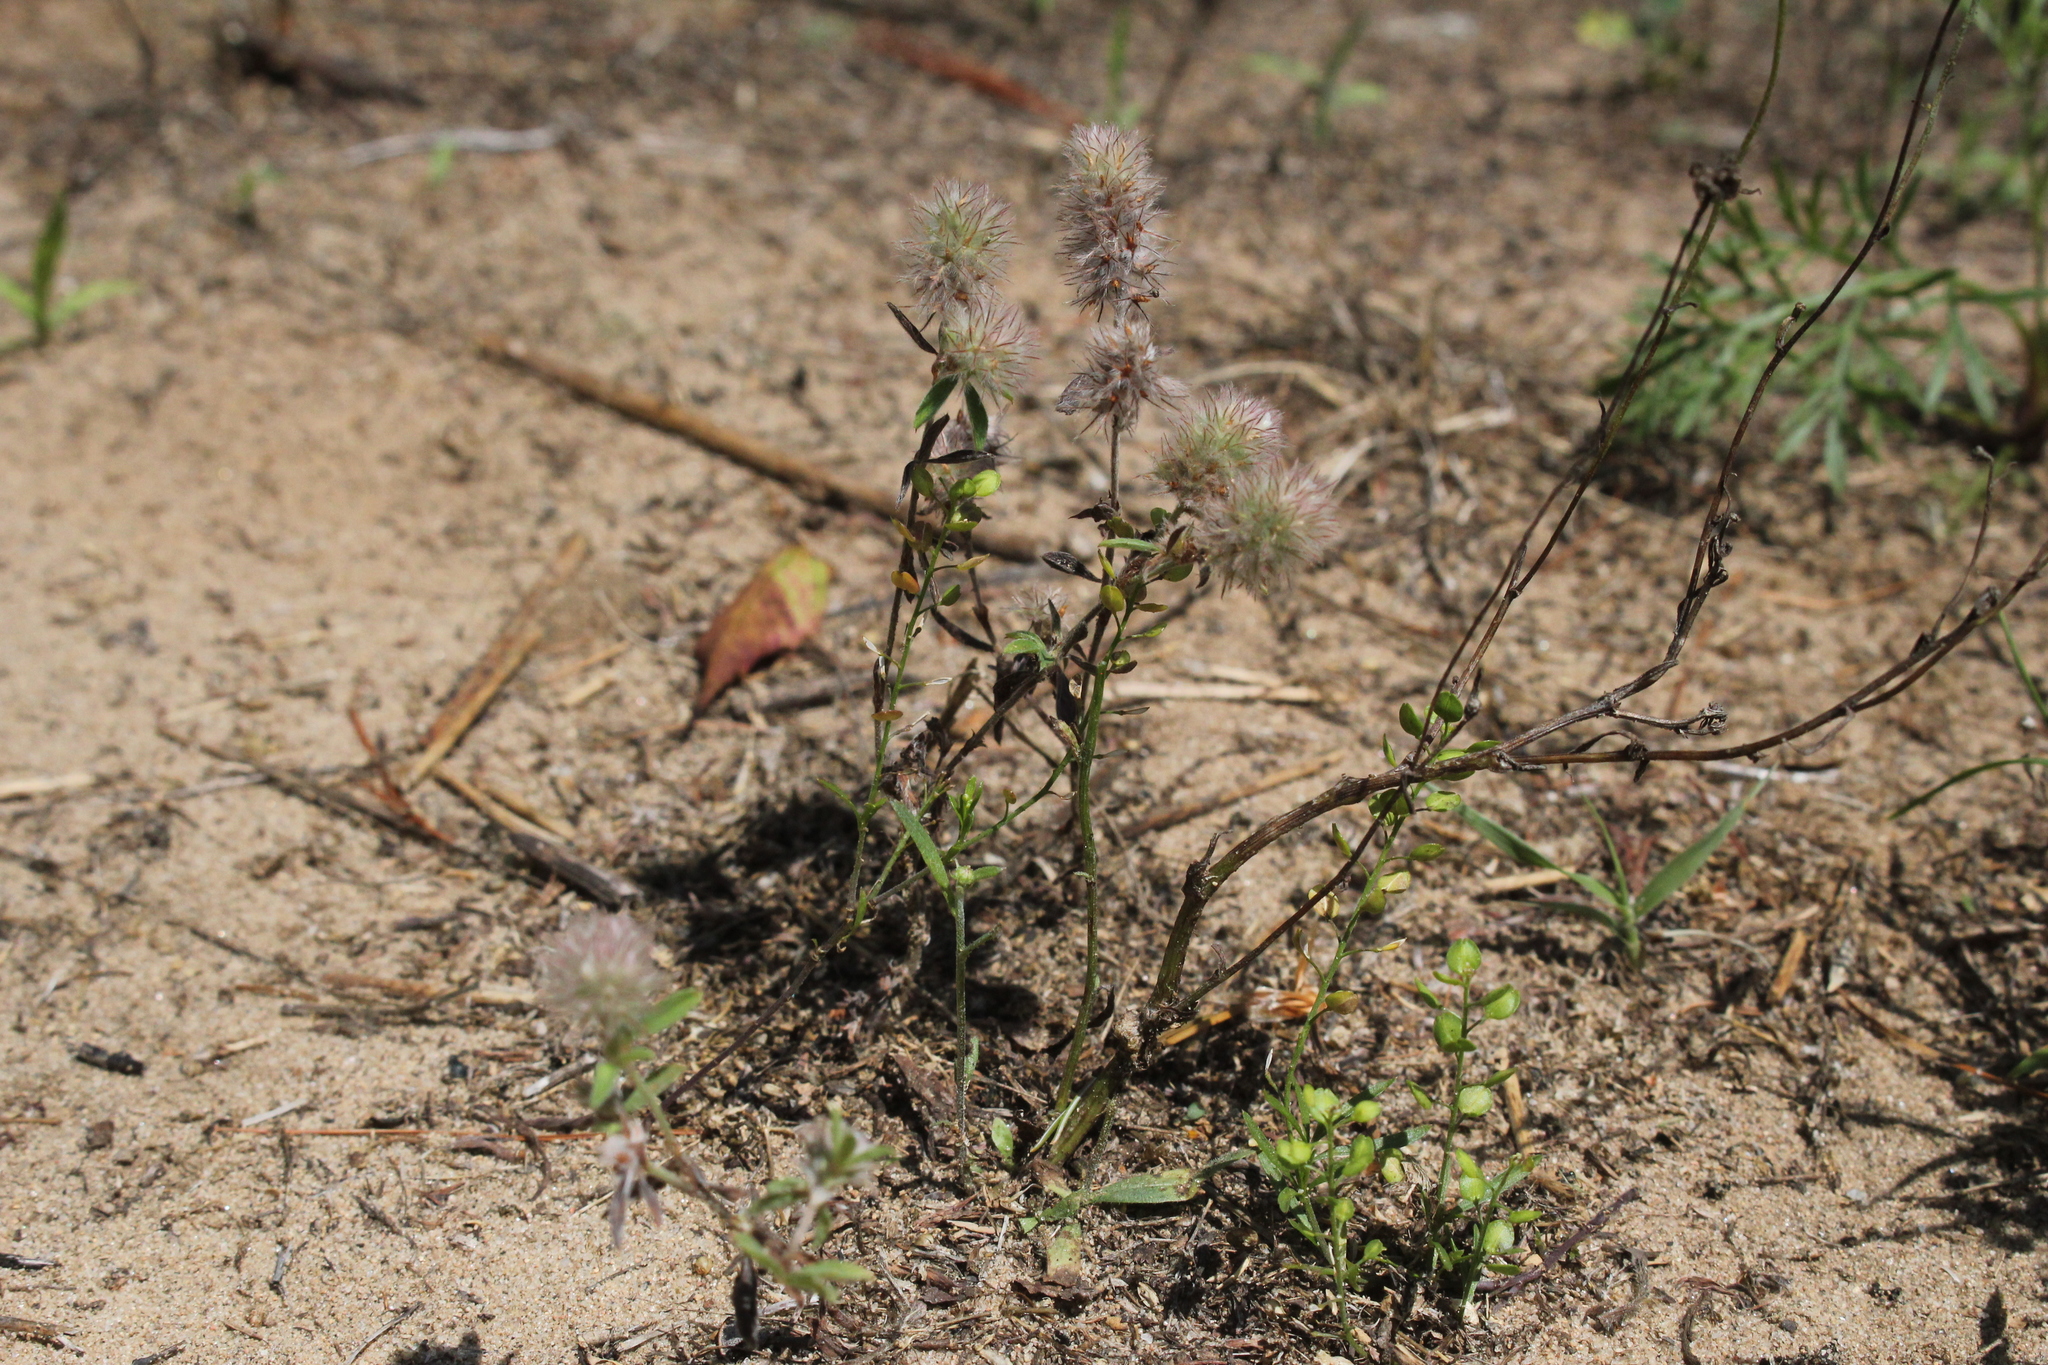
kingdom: Plantae
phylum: Tracheophyta
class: Magnoliopsida
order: Fabales
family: Fabaceae
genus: Trifolium
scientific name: Trifolium arvense
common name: Hare's-foot clover
